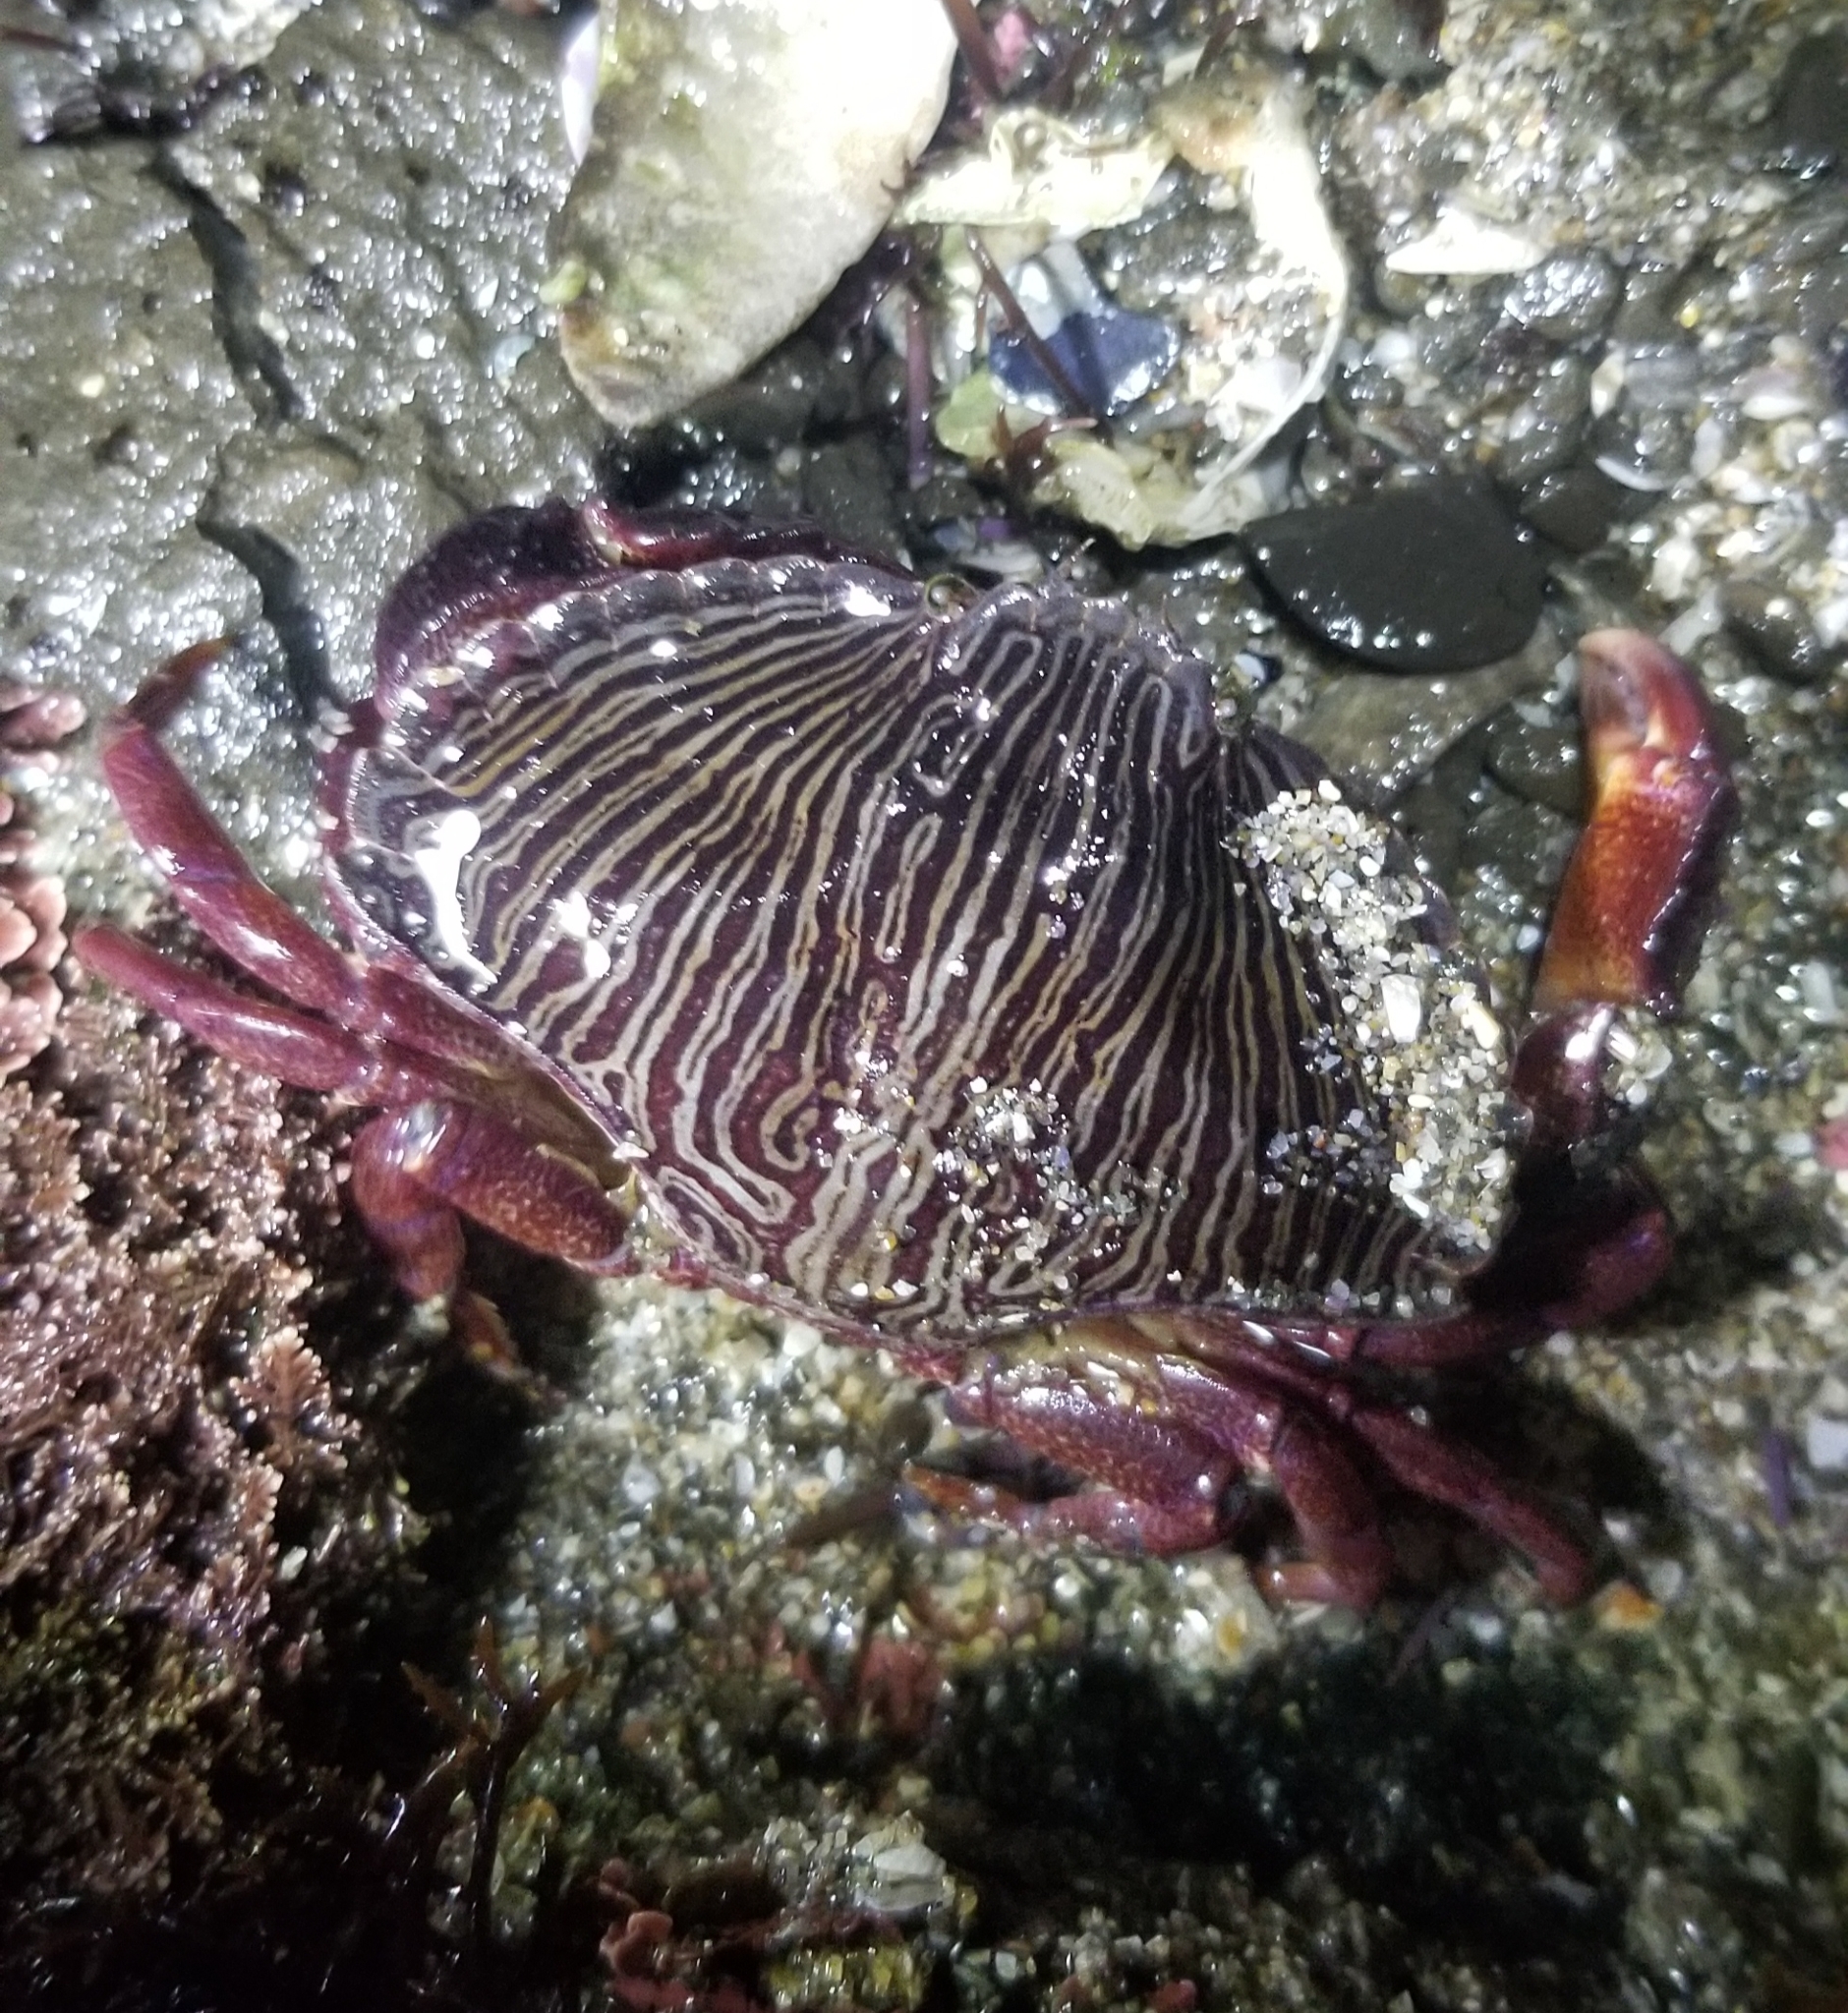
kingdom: Animalia
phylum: Arthropoda
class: Malacostraca
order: Decapoda
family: Cancridae
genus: Cancer
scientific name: Cancer productus
